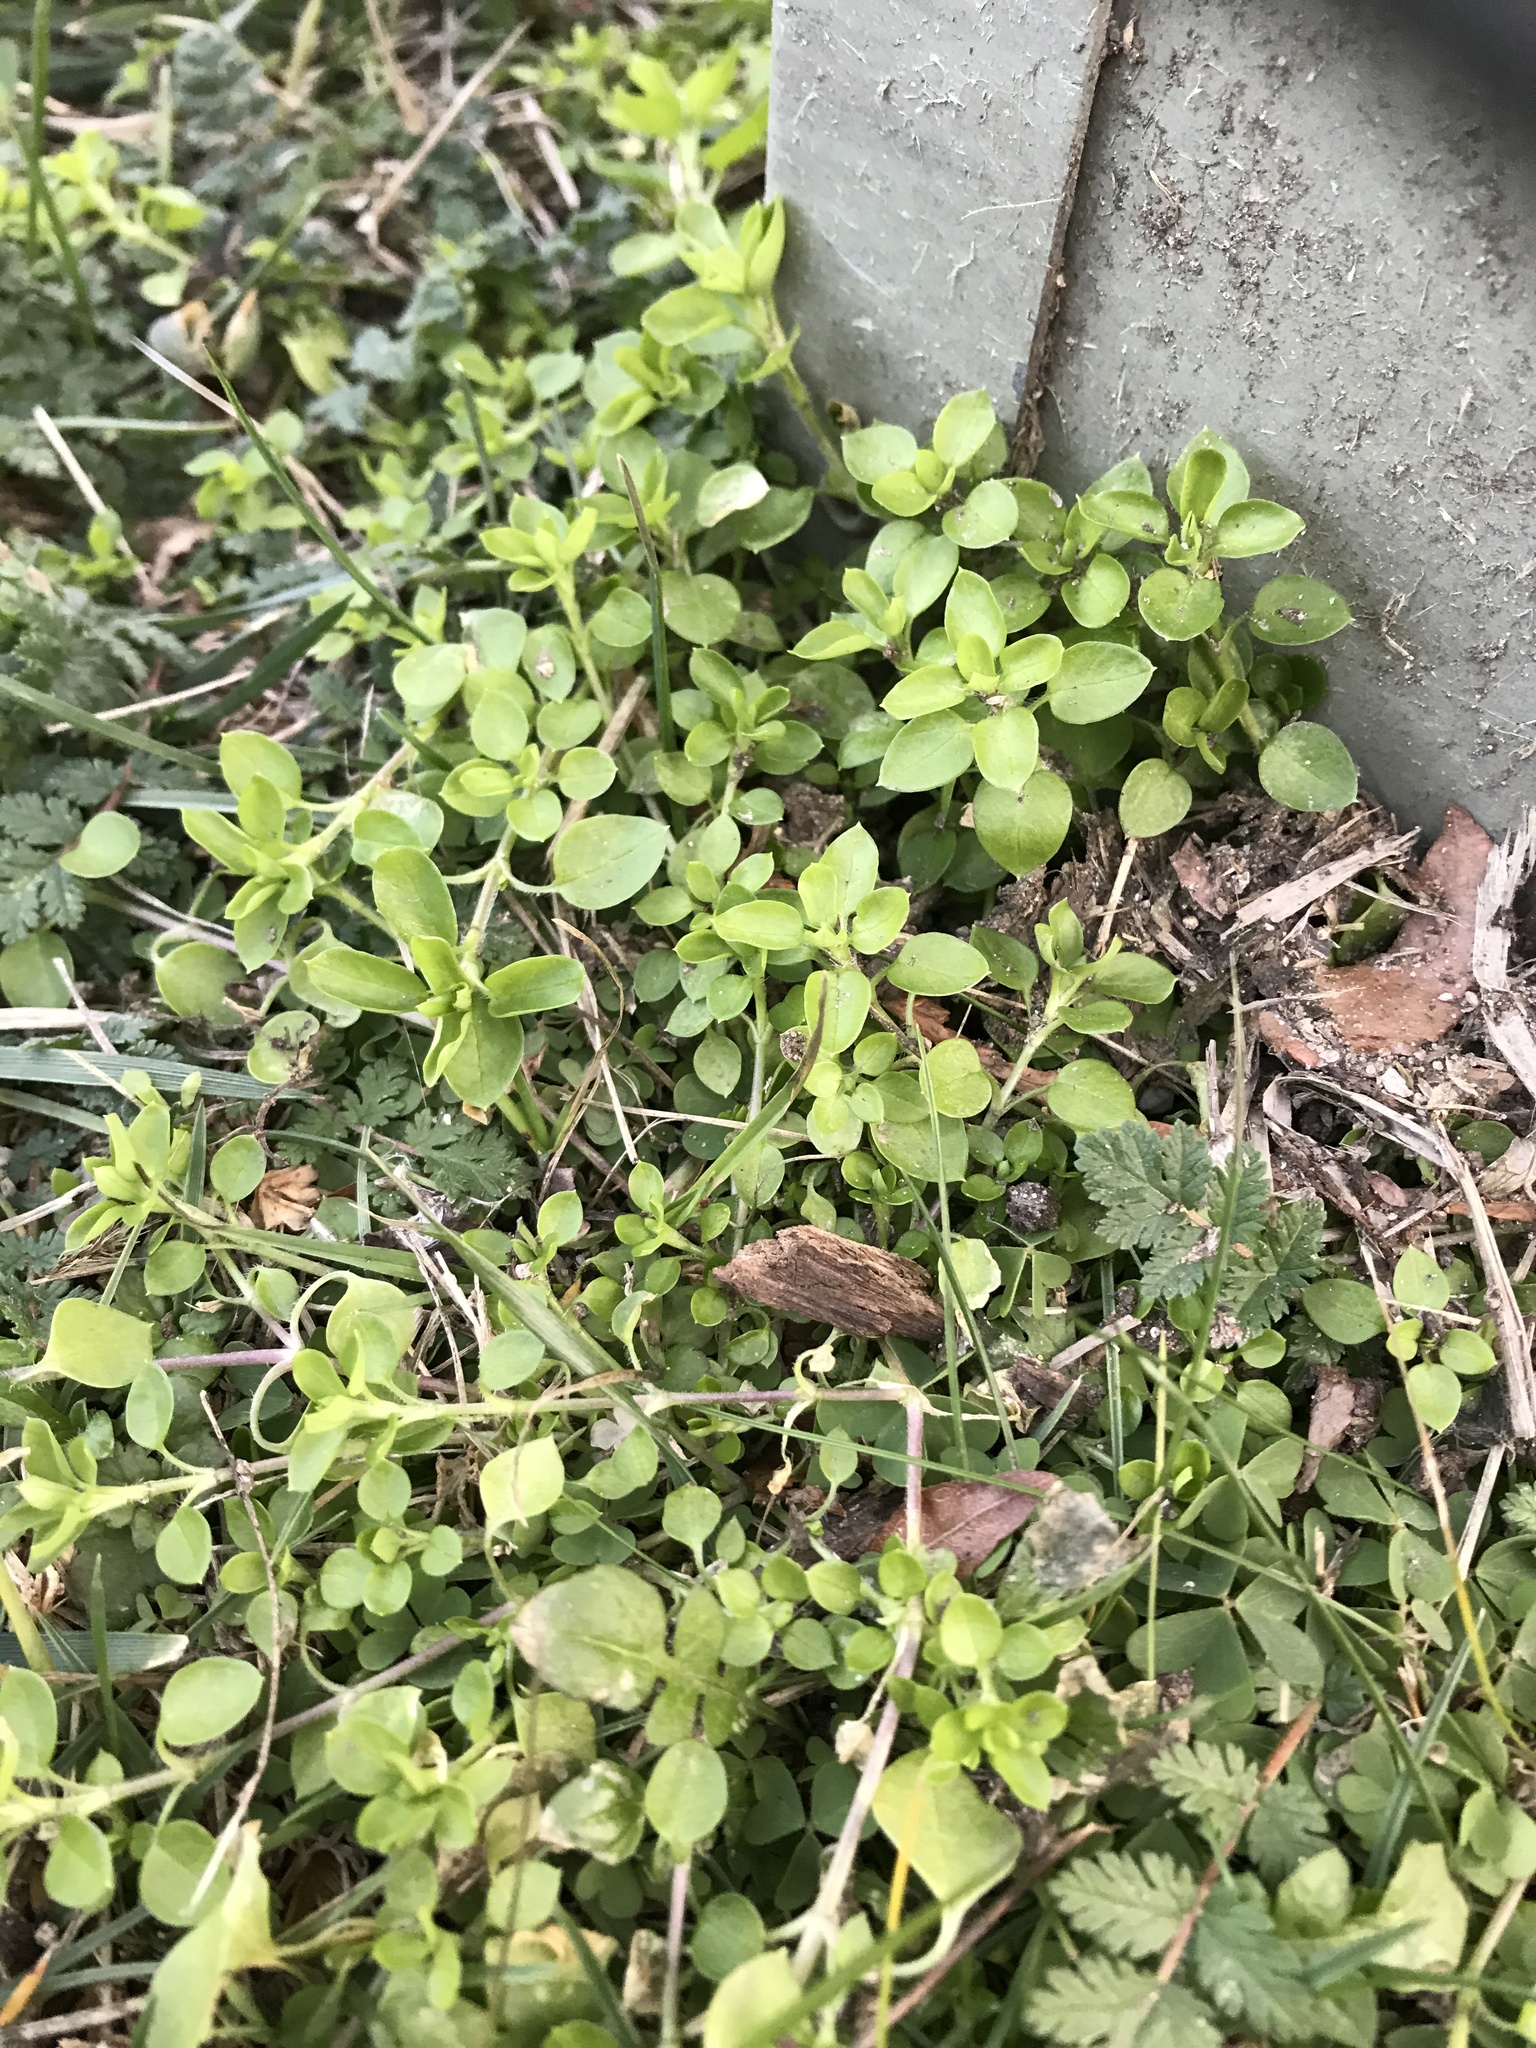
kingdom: Plantae
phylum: Tracheophyta
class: Magnoliopsida
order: Caryophyllales
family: Caryophyllaceae
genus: Stellaria
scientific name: Stellaria media
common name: Common chickweed
